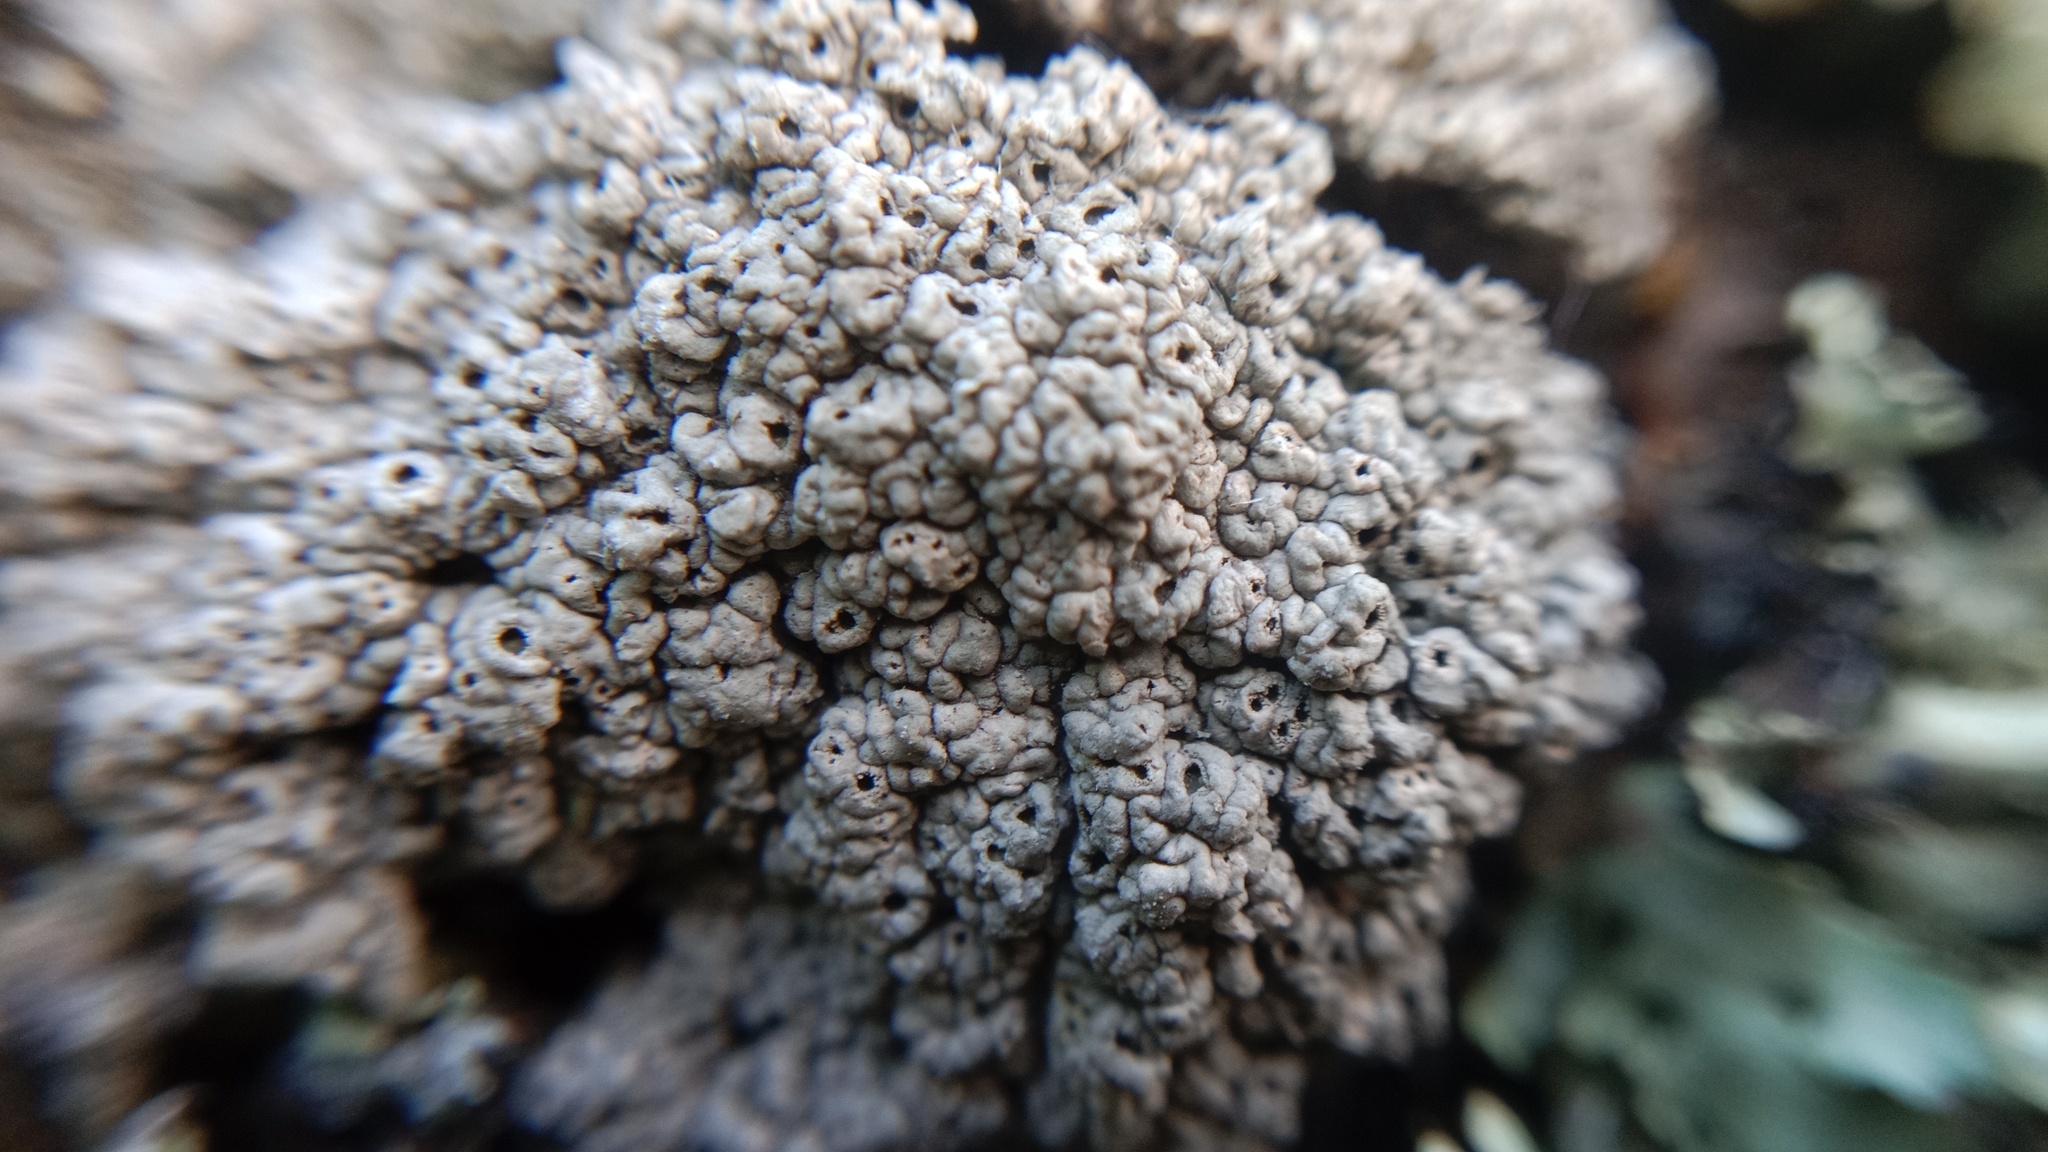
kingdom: Fungi
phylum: Ascomycota
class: Lecanoromycetes
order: Ostropales
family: Graphidaceae
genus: Diploschistes
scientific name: Diploschistes scruposus
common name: Crater lichen
